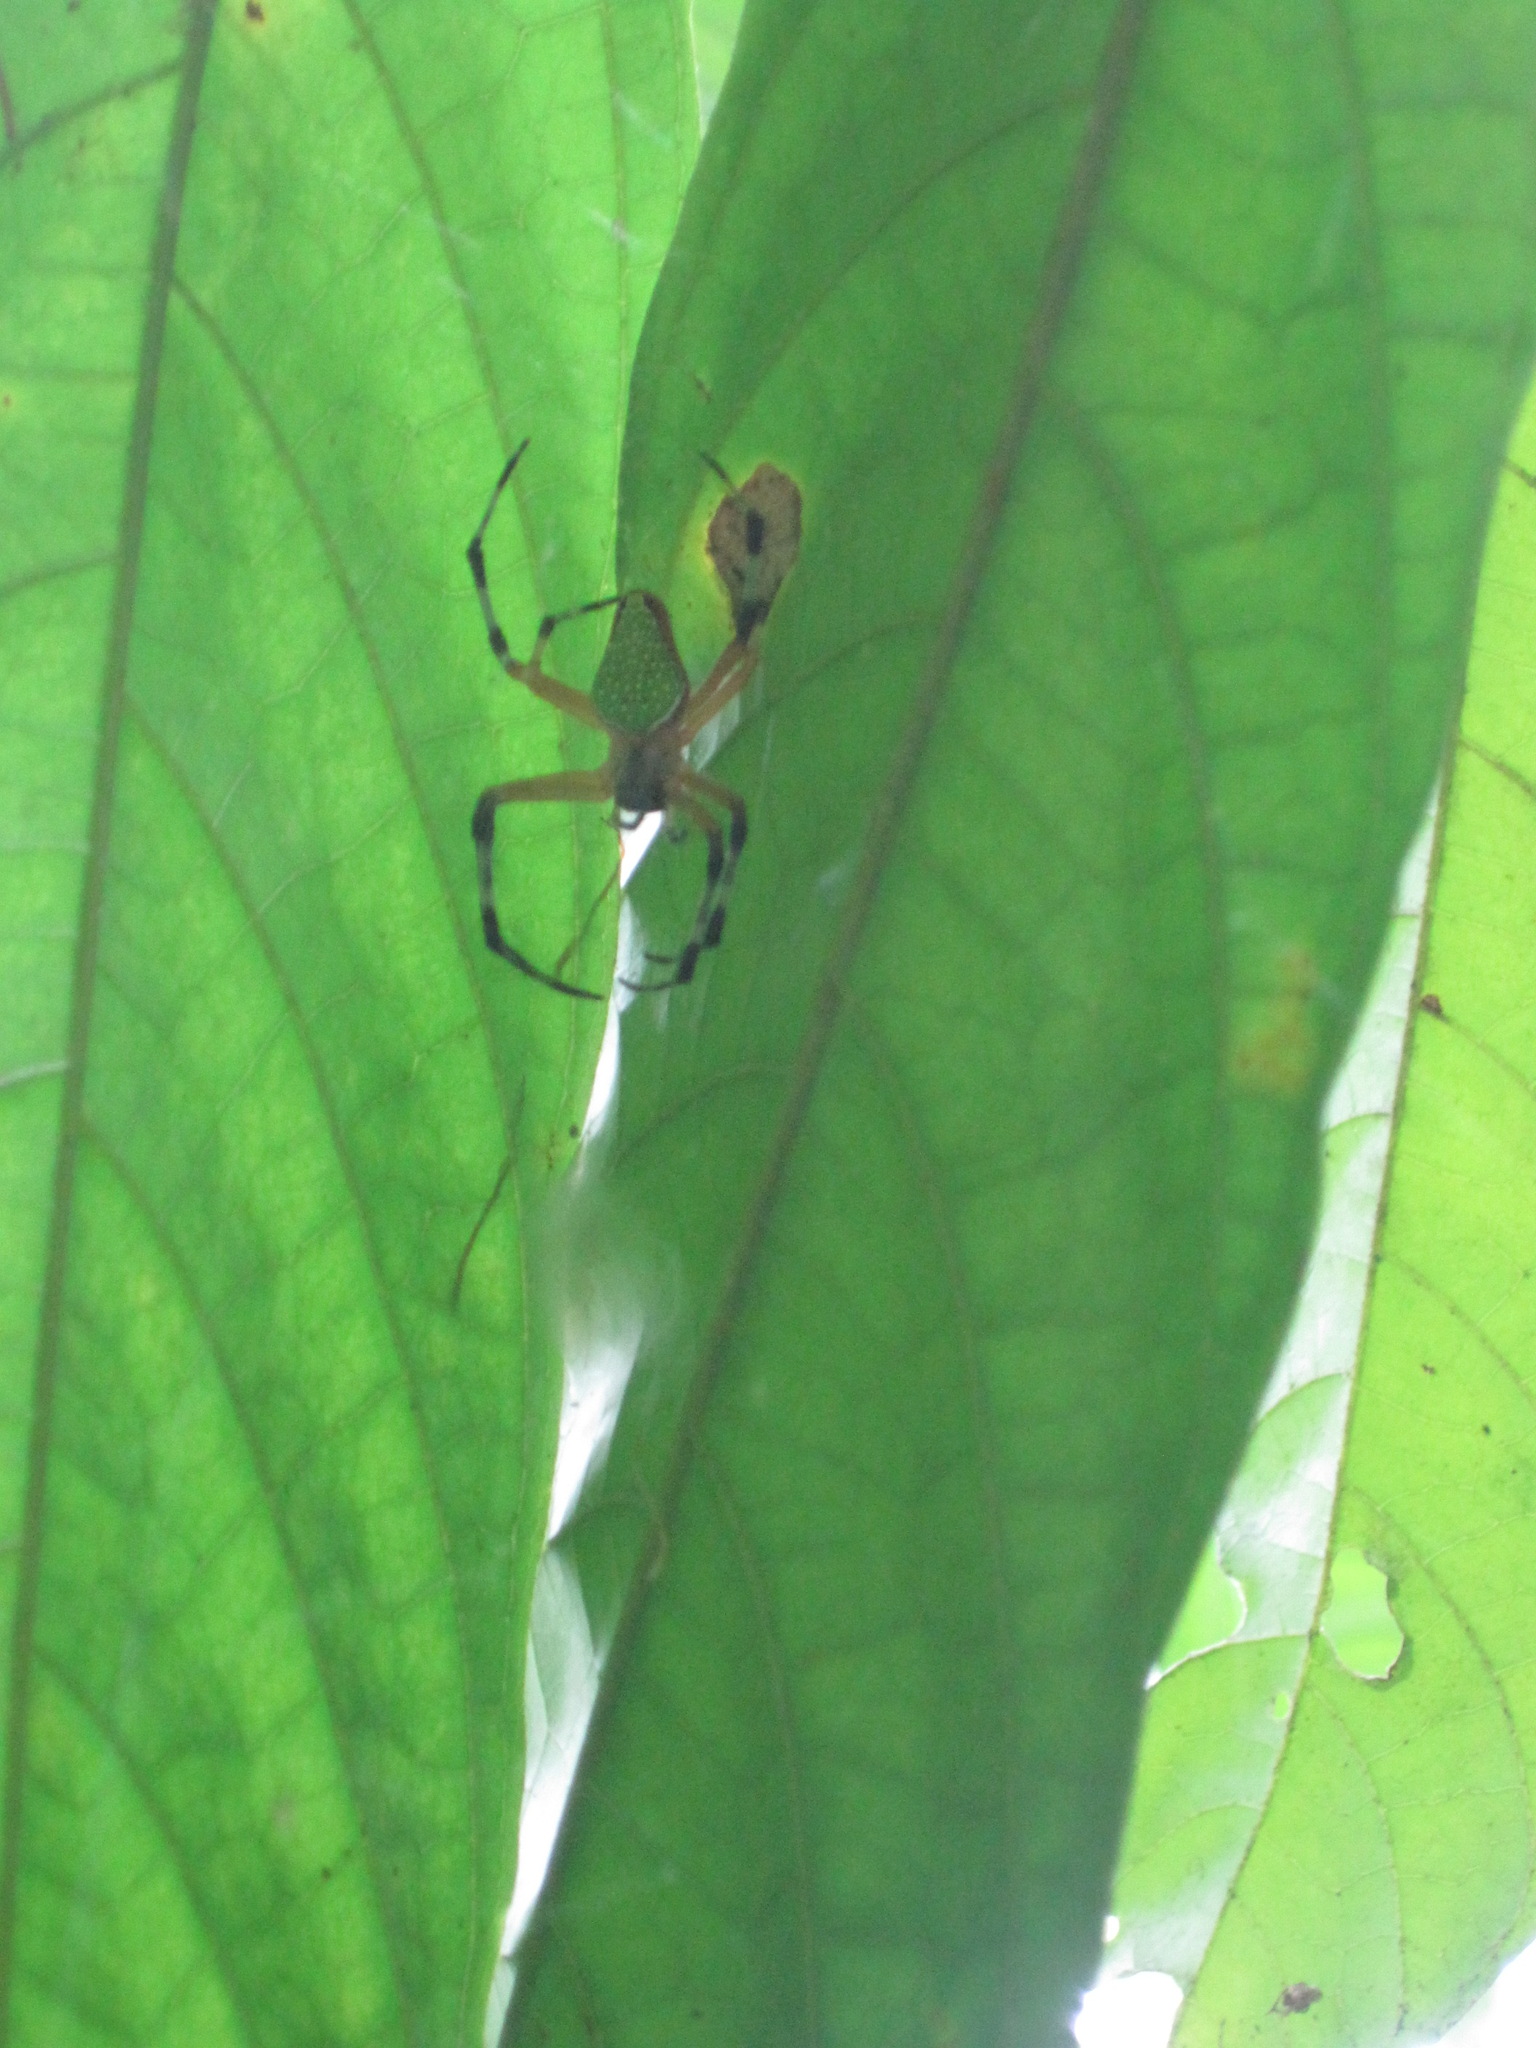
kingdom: Animalia
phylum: Arthropoda
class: Arachnida
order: Araneae
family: Araneidae
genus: Eriophora
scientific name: Eriophora nephiloides
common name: Orb weavers
